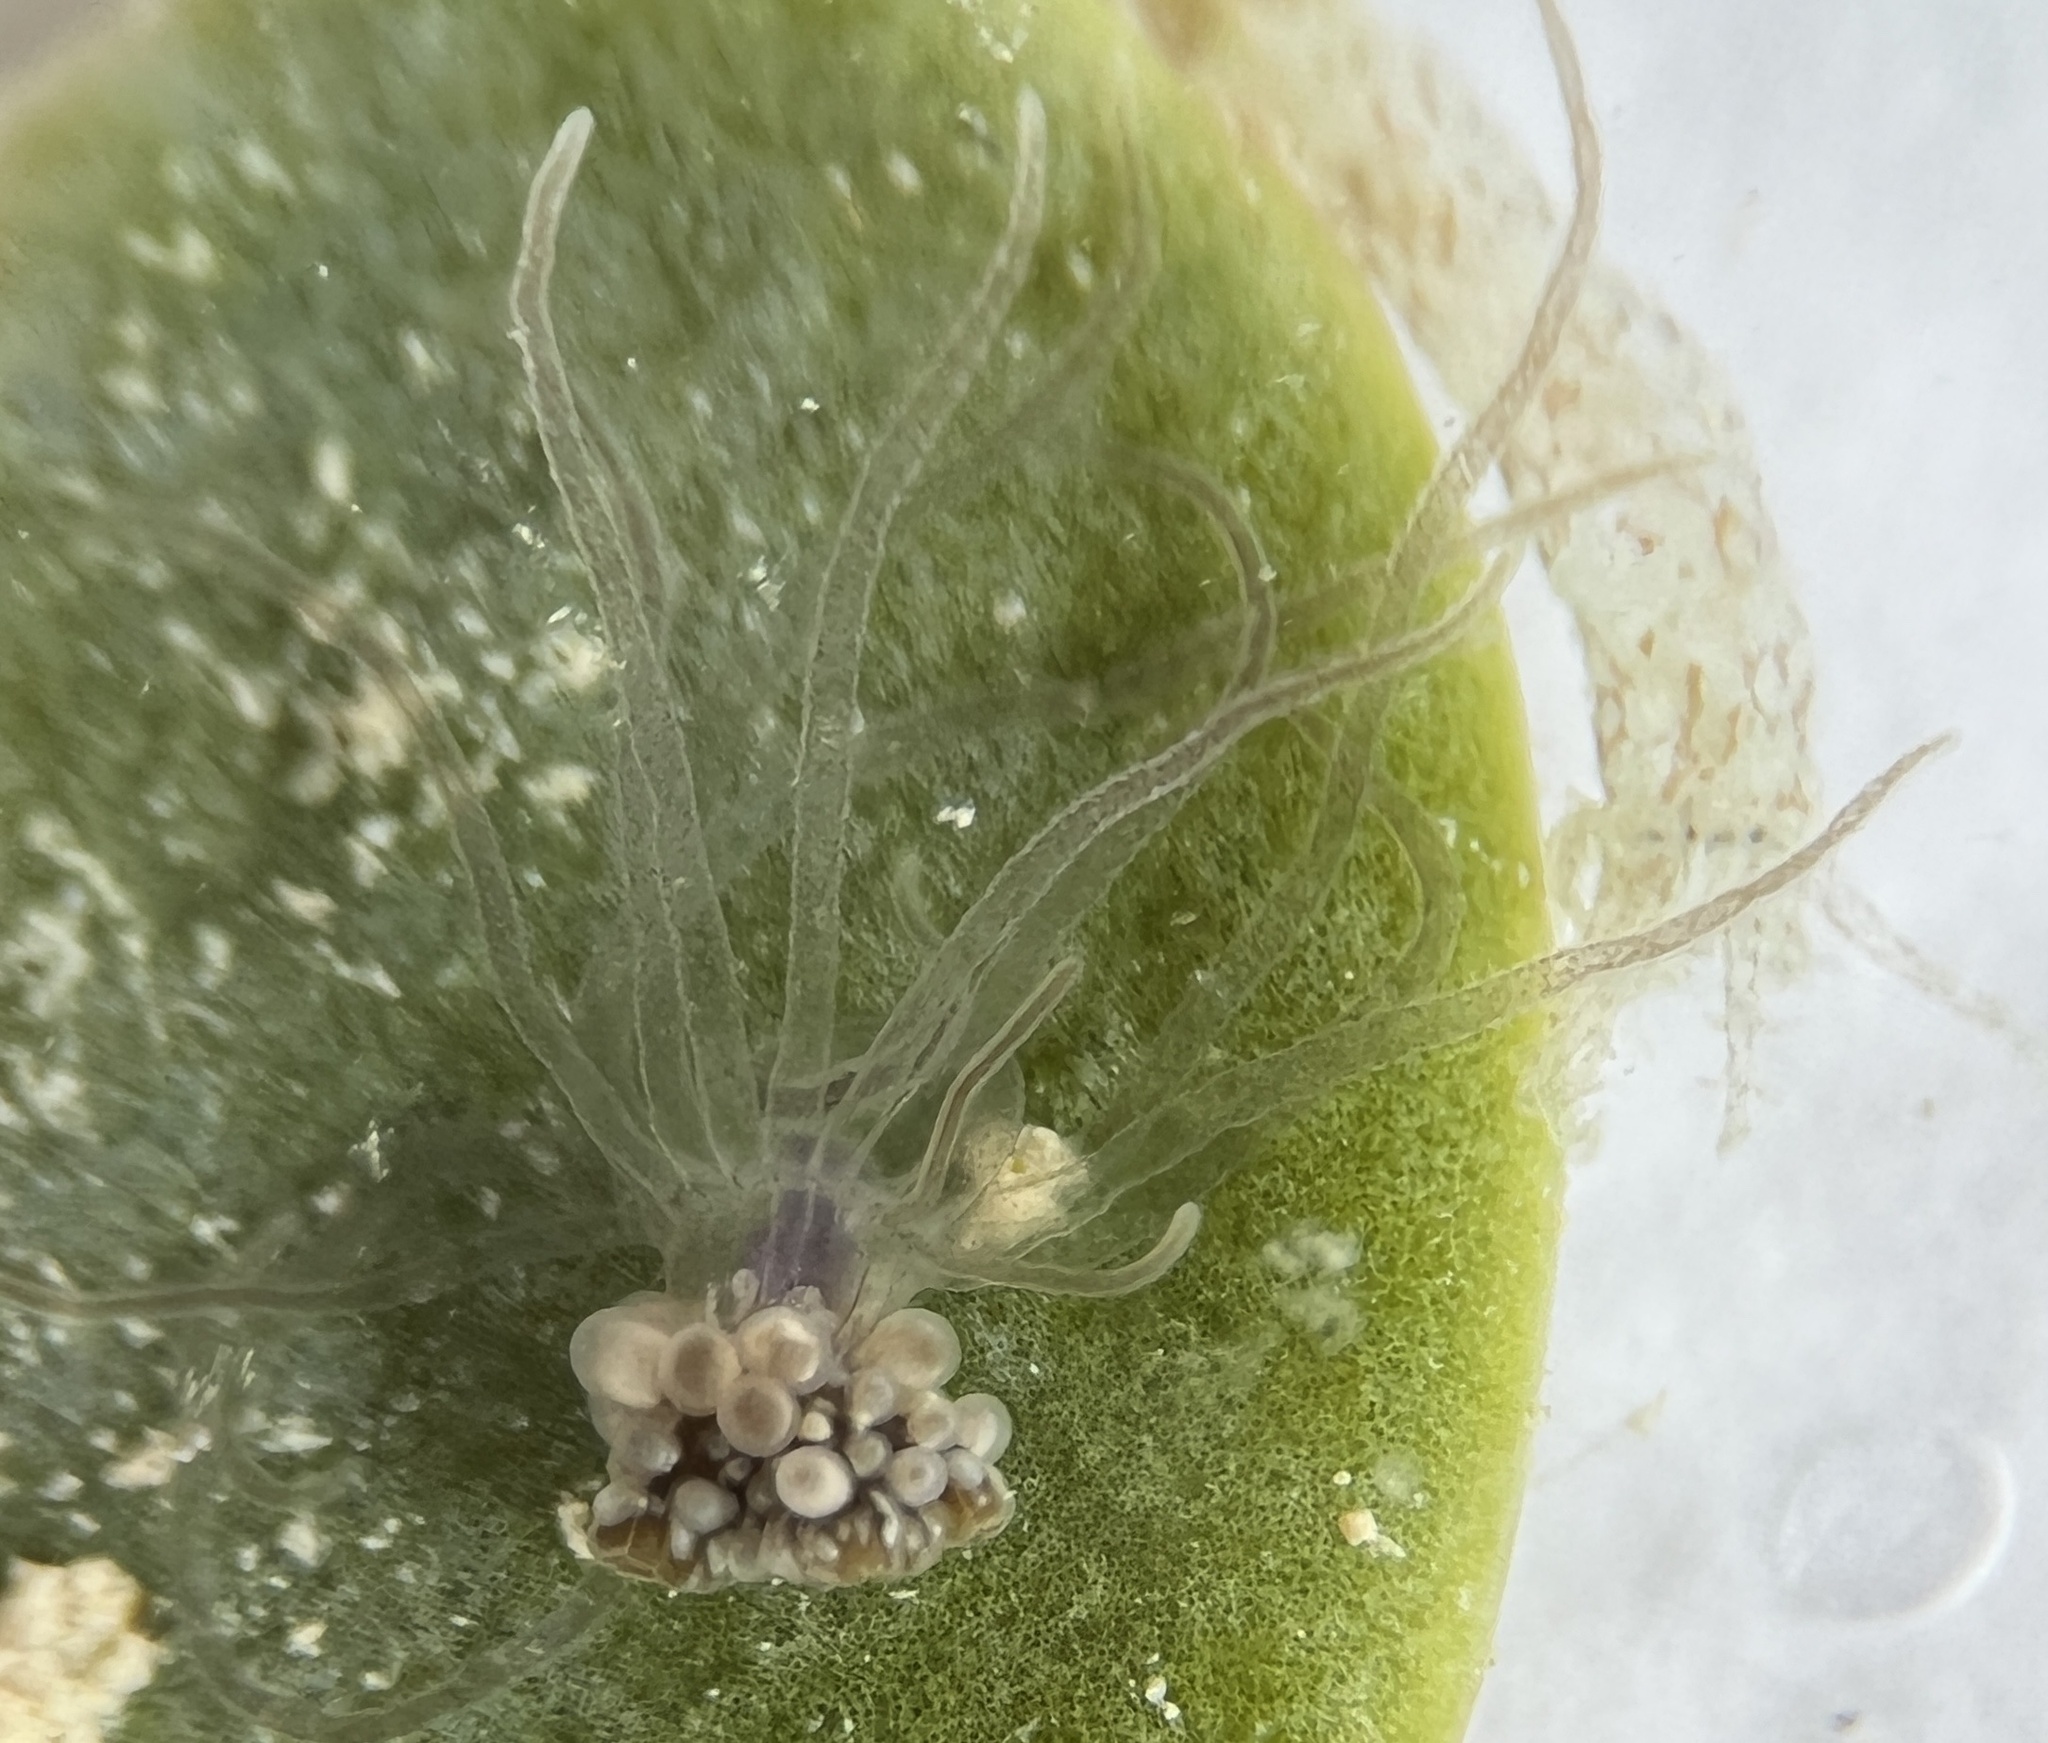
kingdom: Animalia
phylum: Cnidaria
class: Anthozoa
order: Actiniaria
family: Boloceroididae
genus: Bunodeopsis
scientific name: Bunodeopsis globulifera
